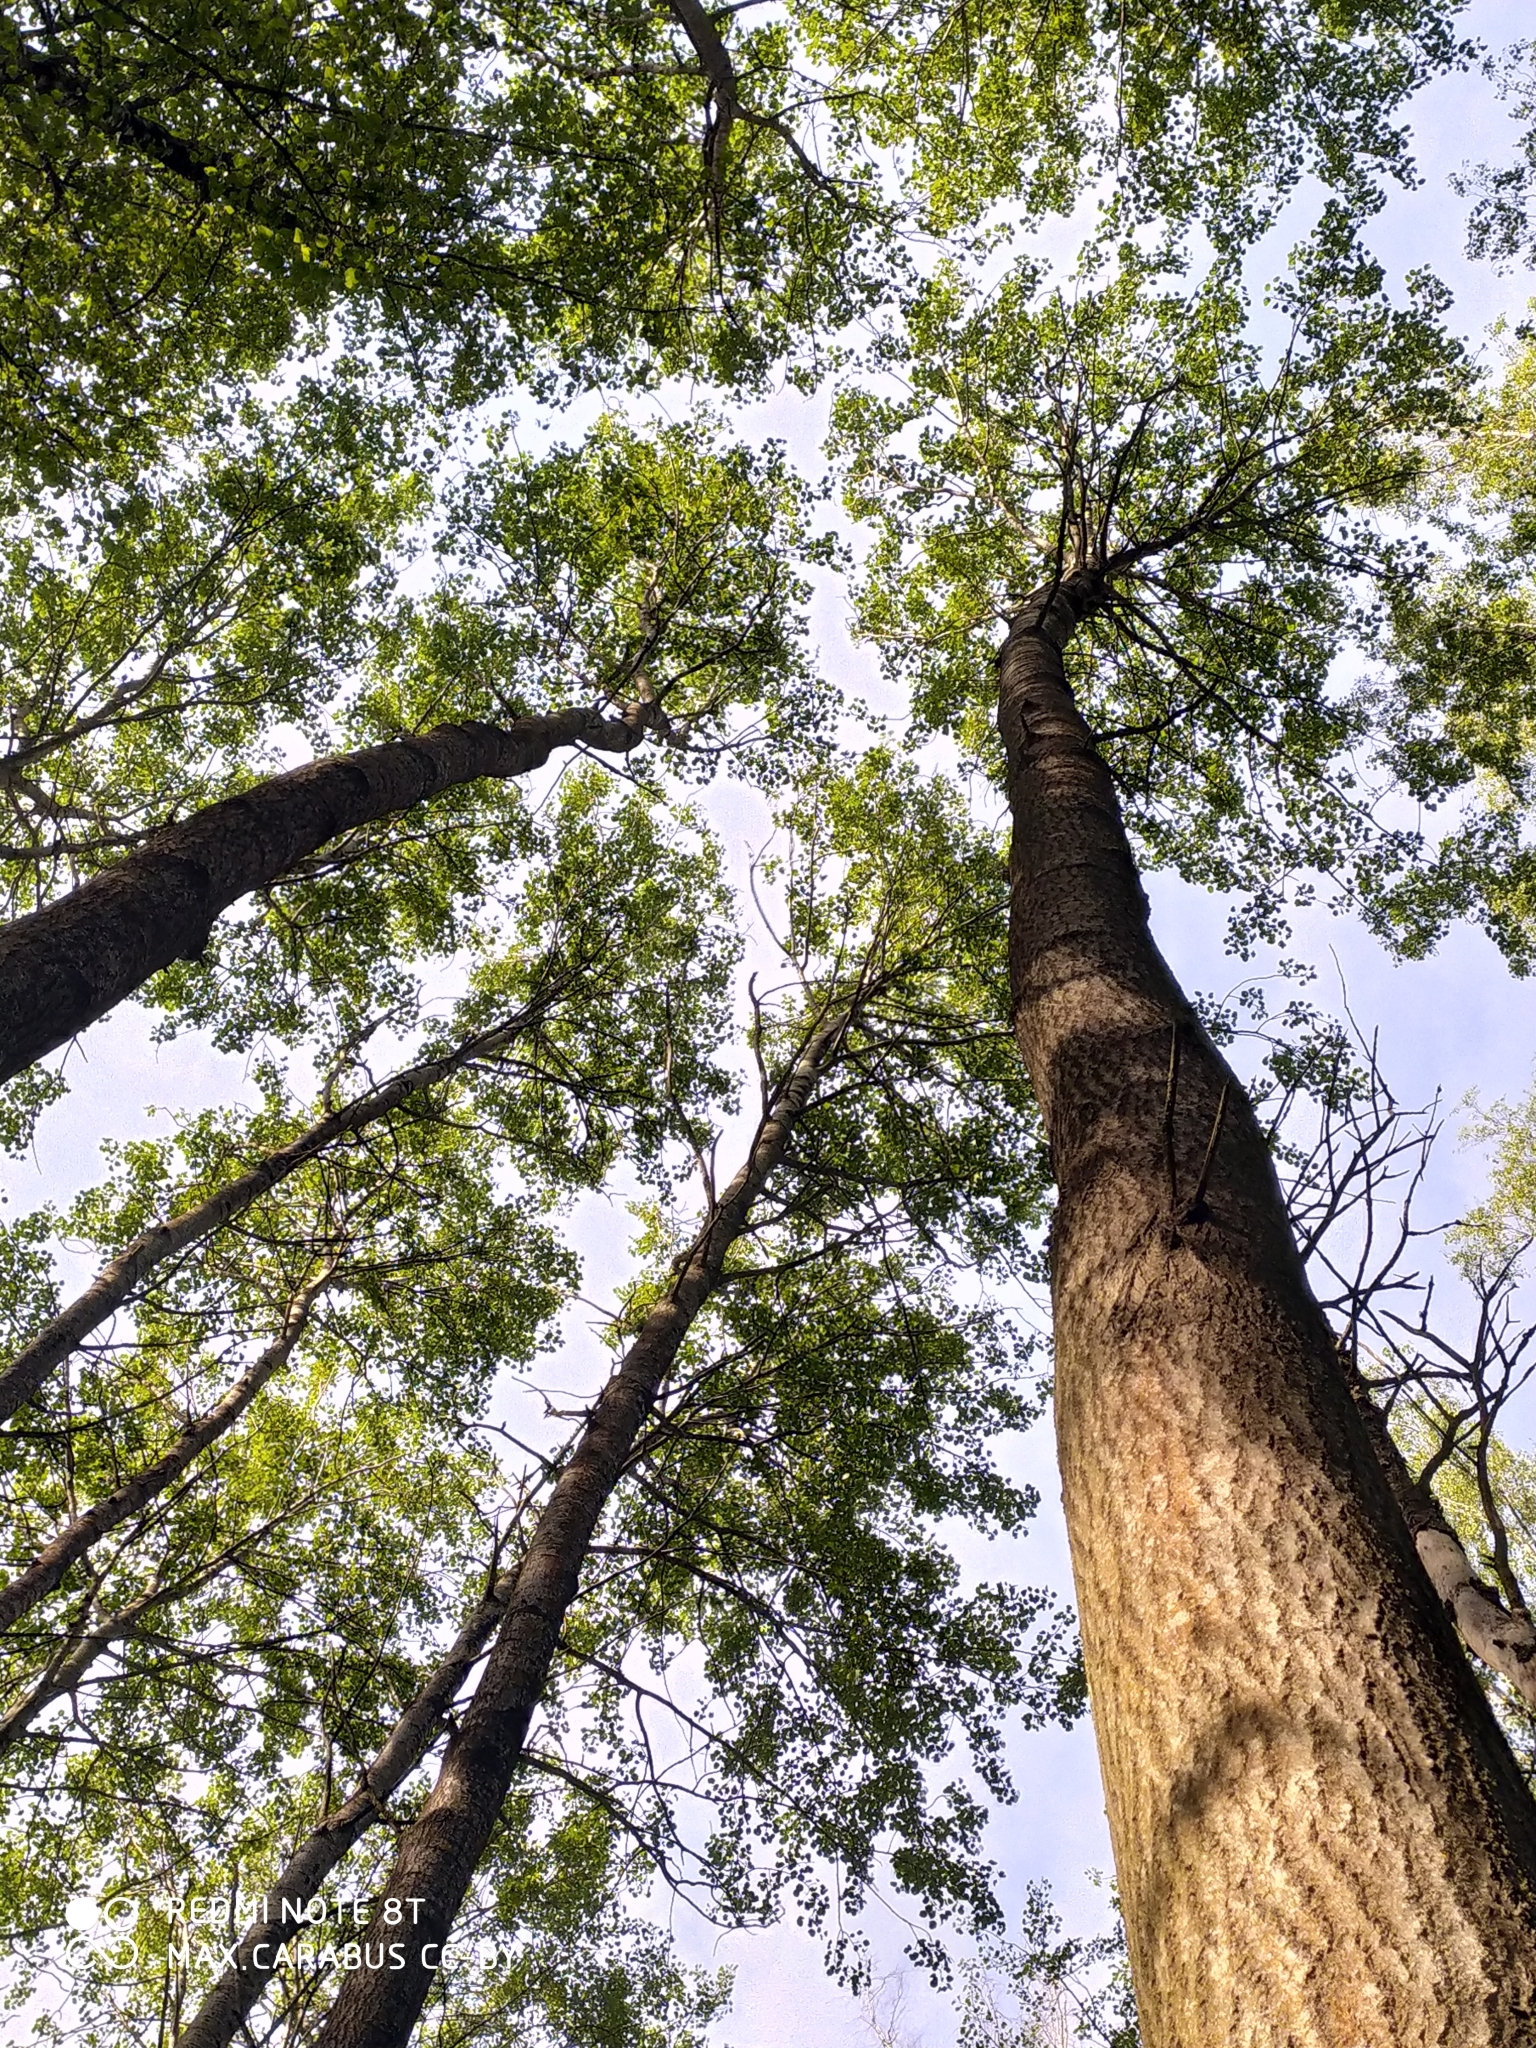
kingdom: Plantae
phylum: Tracheophyta
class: Magnoliopsida
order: Malpighiales
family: Salicaceae
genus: Populus
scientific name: Populus tremula
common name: European aspen
